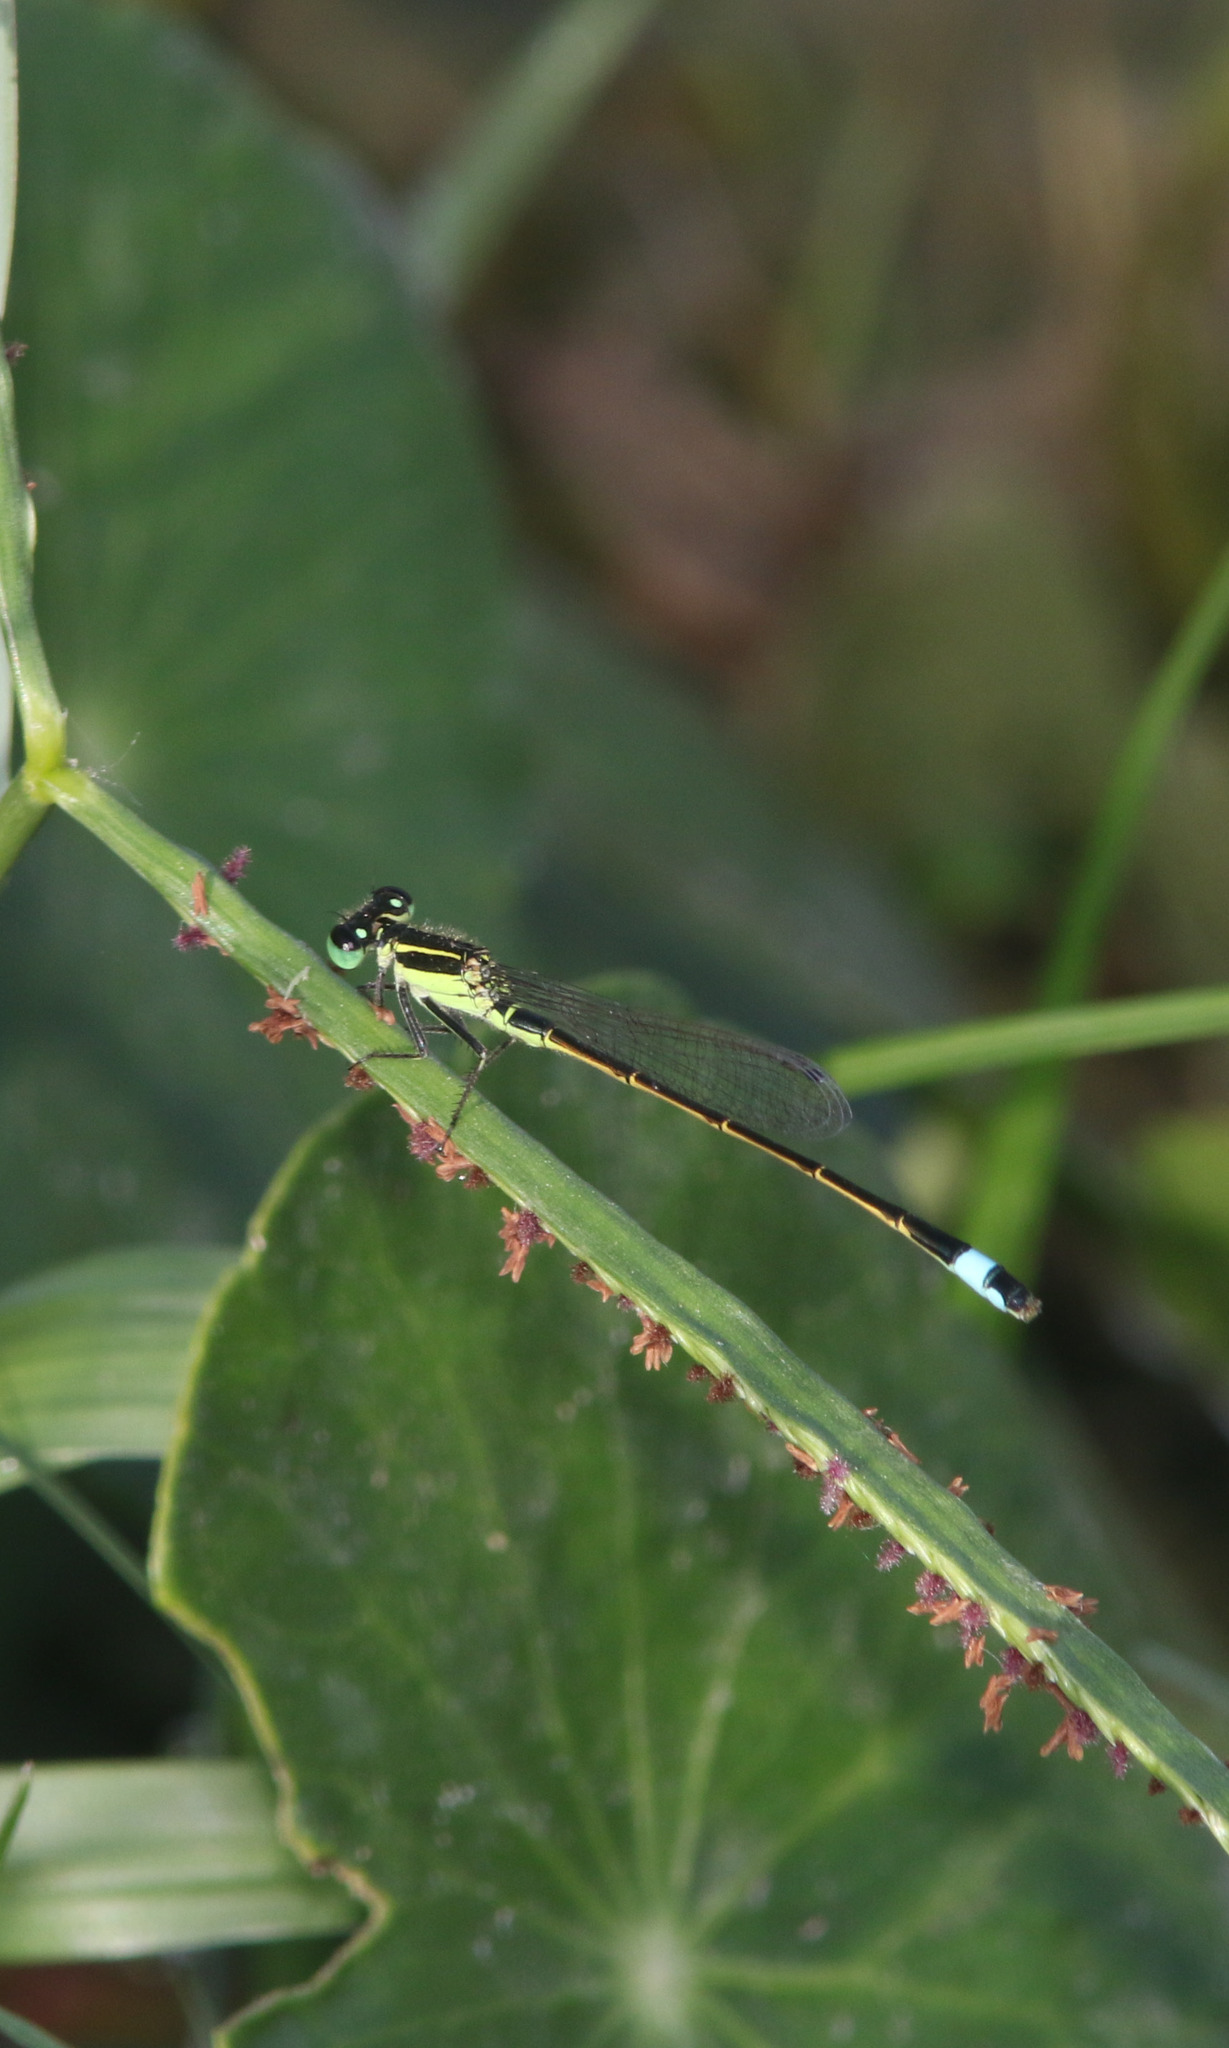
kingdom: Animalia
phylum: Arthropoda
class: Insecta
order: Odonata
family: Coenagrionidae
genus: Ischnura
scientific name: Ischnura ramburii
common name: Rambur's forktail
